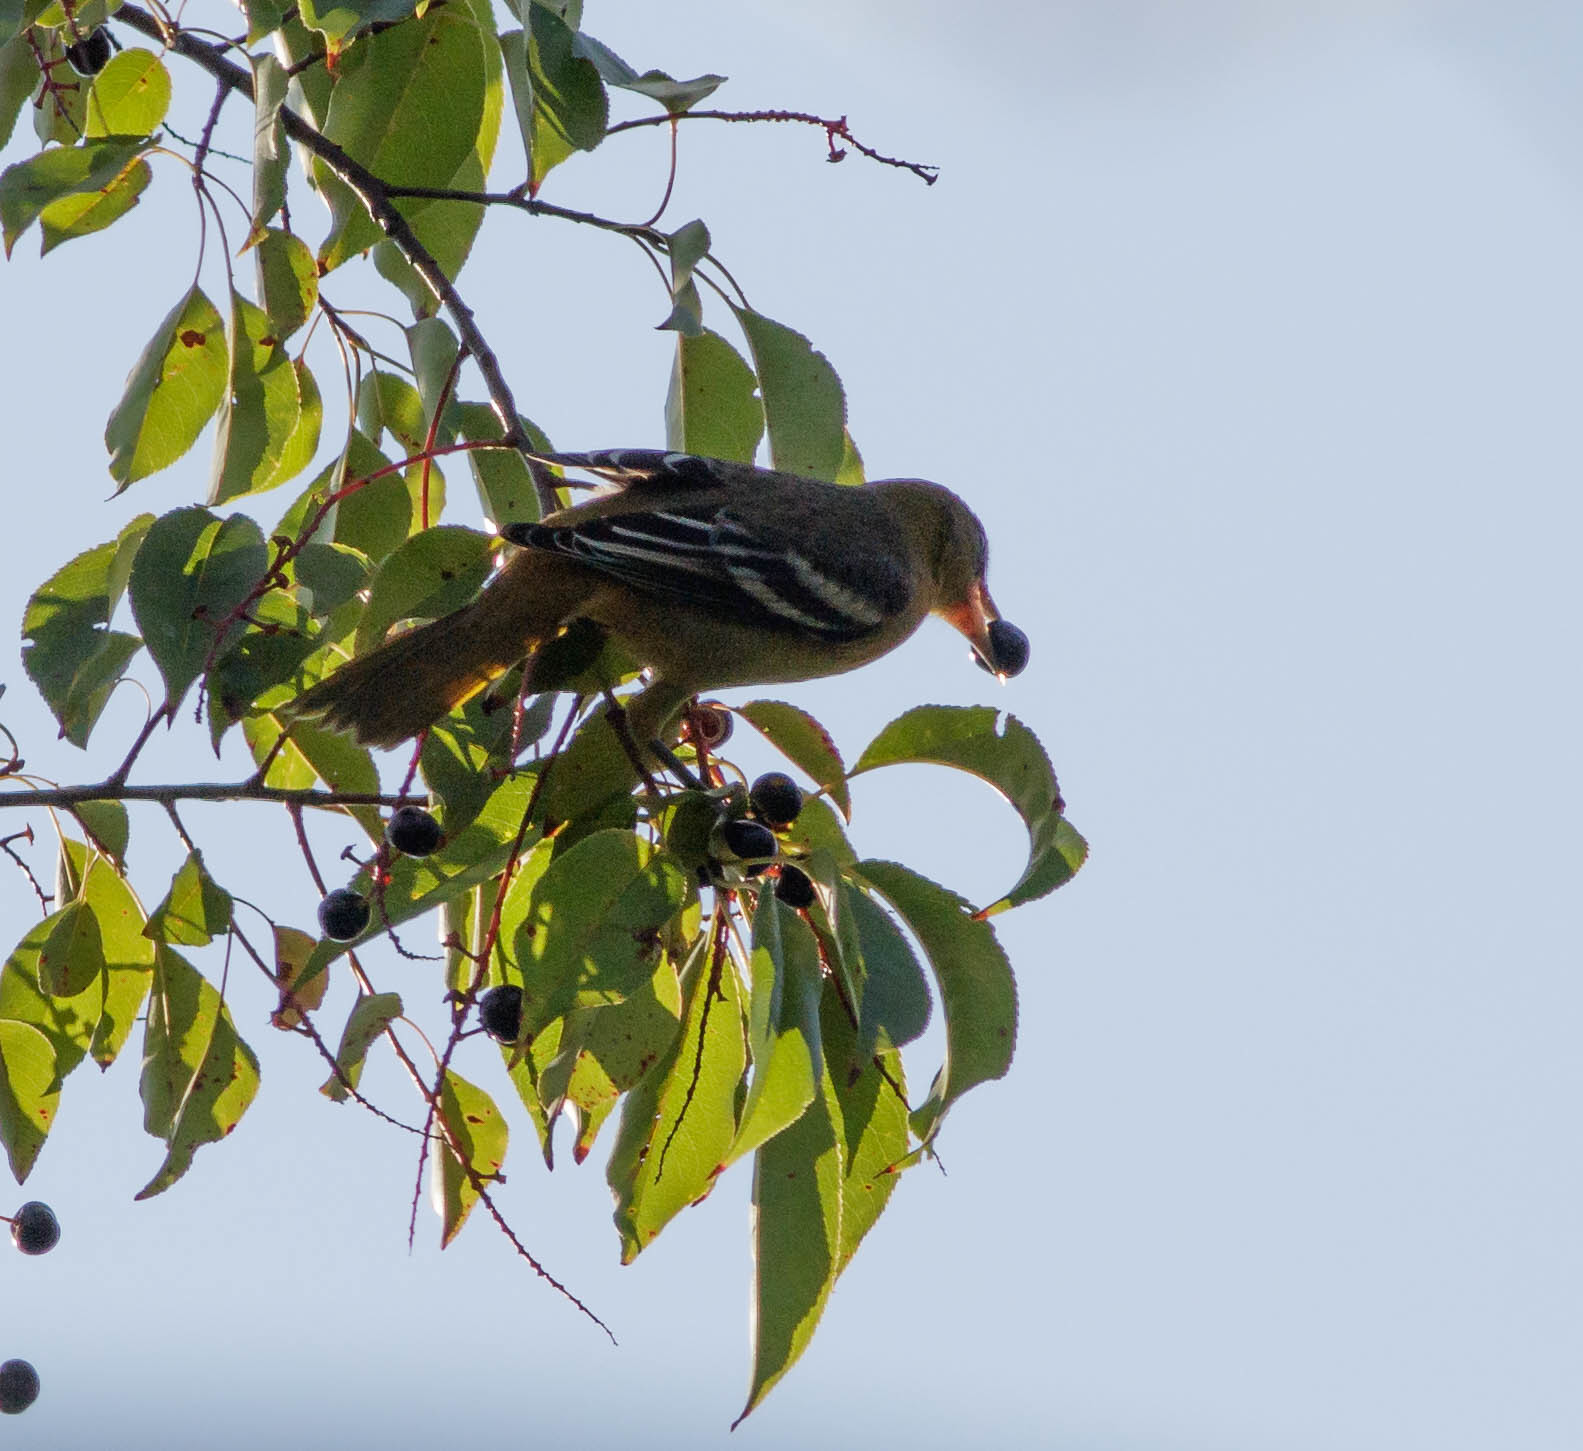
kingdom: Animalia
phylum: Chordata
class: Aves
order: Passeriformes
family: Icteridae
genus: Icterus
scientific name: Icterus galbula
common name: Baltimore oriole
